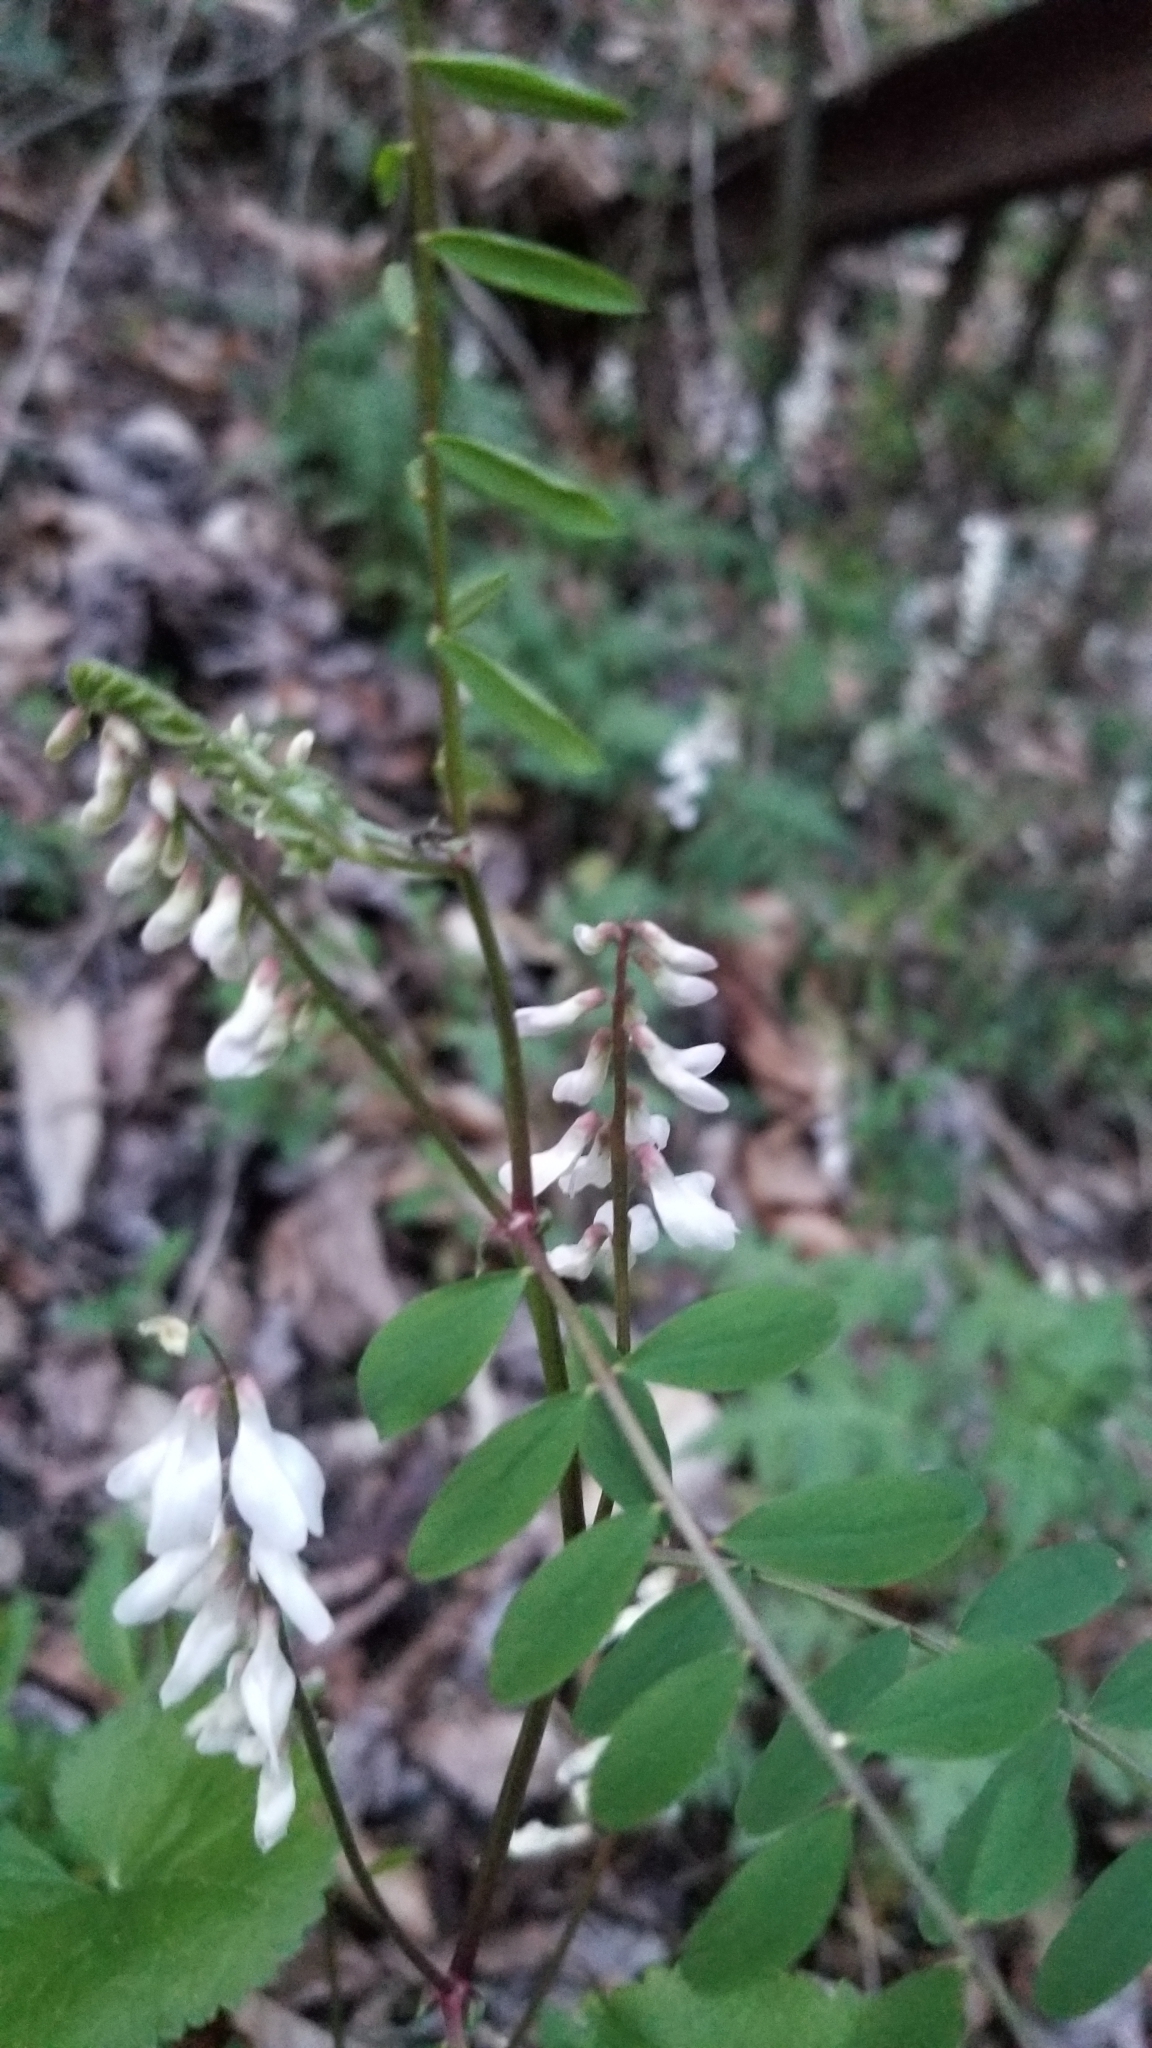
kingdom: Plantae
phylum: Tracheophyta
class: Magnoliopsida
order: Fabales
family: Fabaceae
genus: Vicia
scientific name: Vicia caroliniana
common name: Carolina vetch
